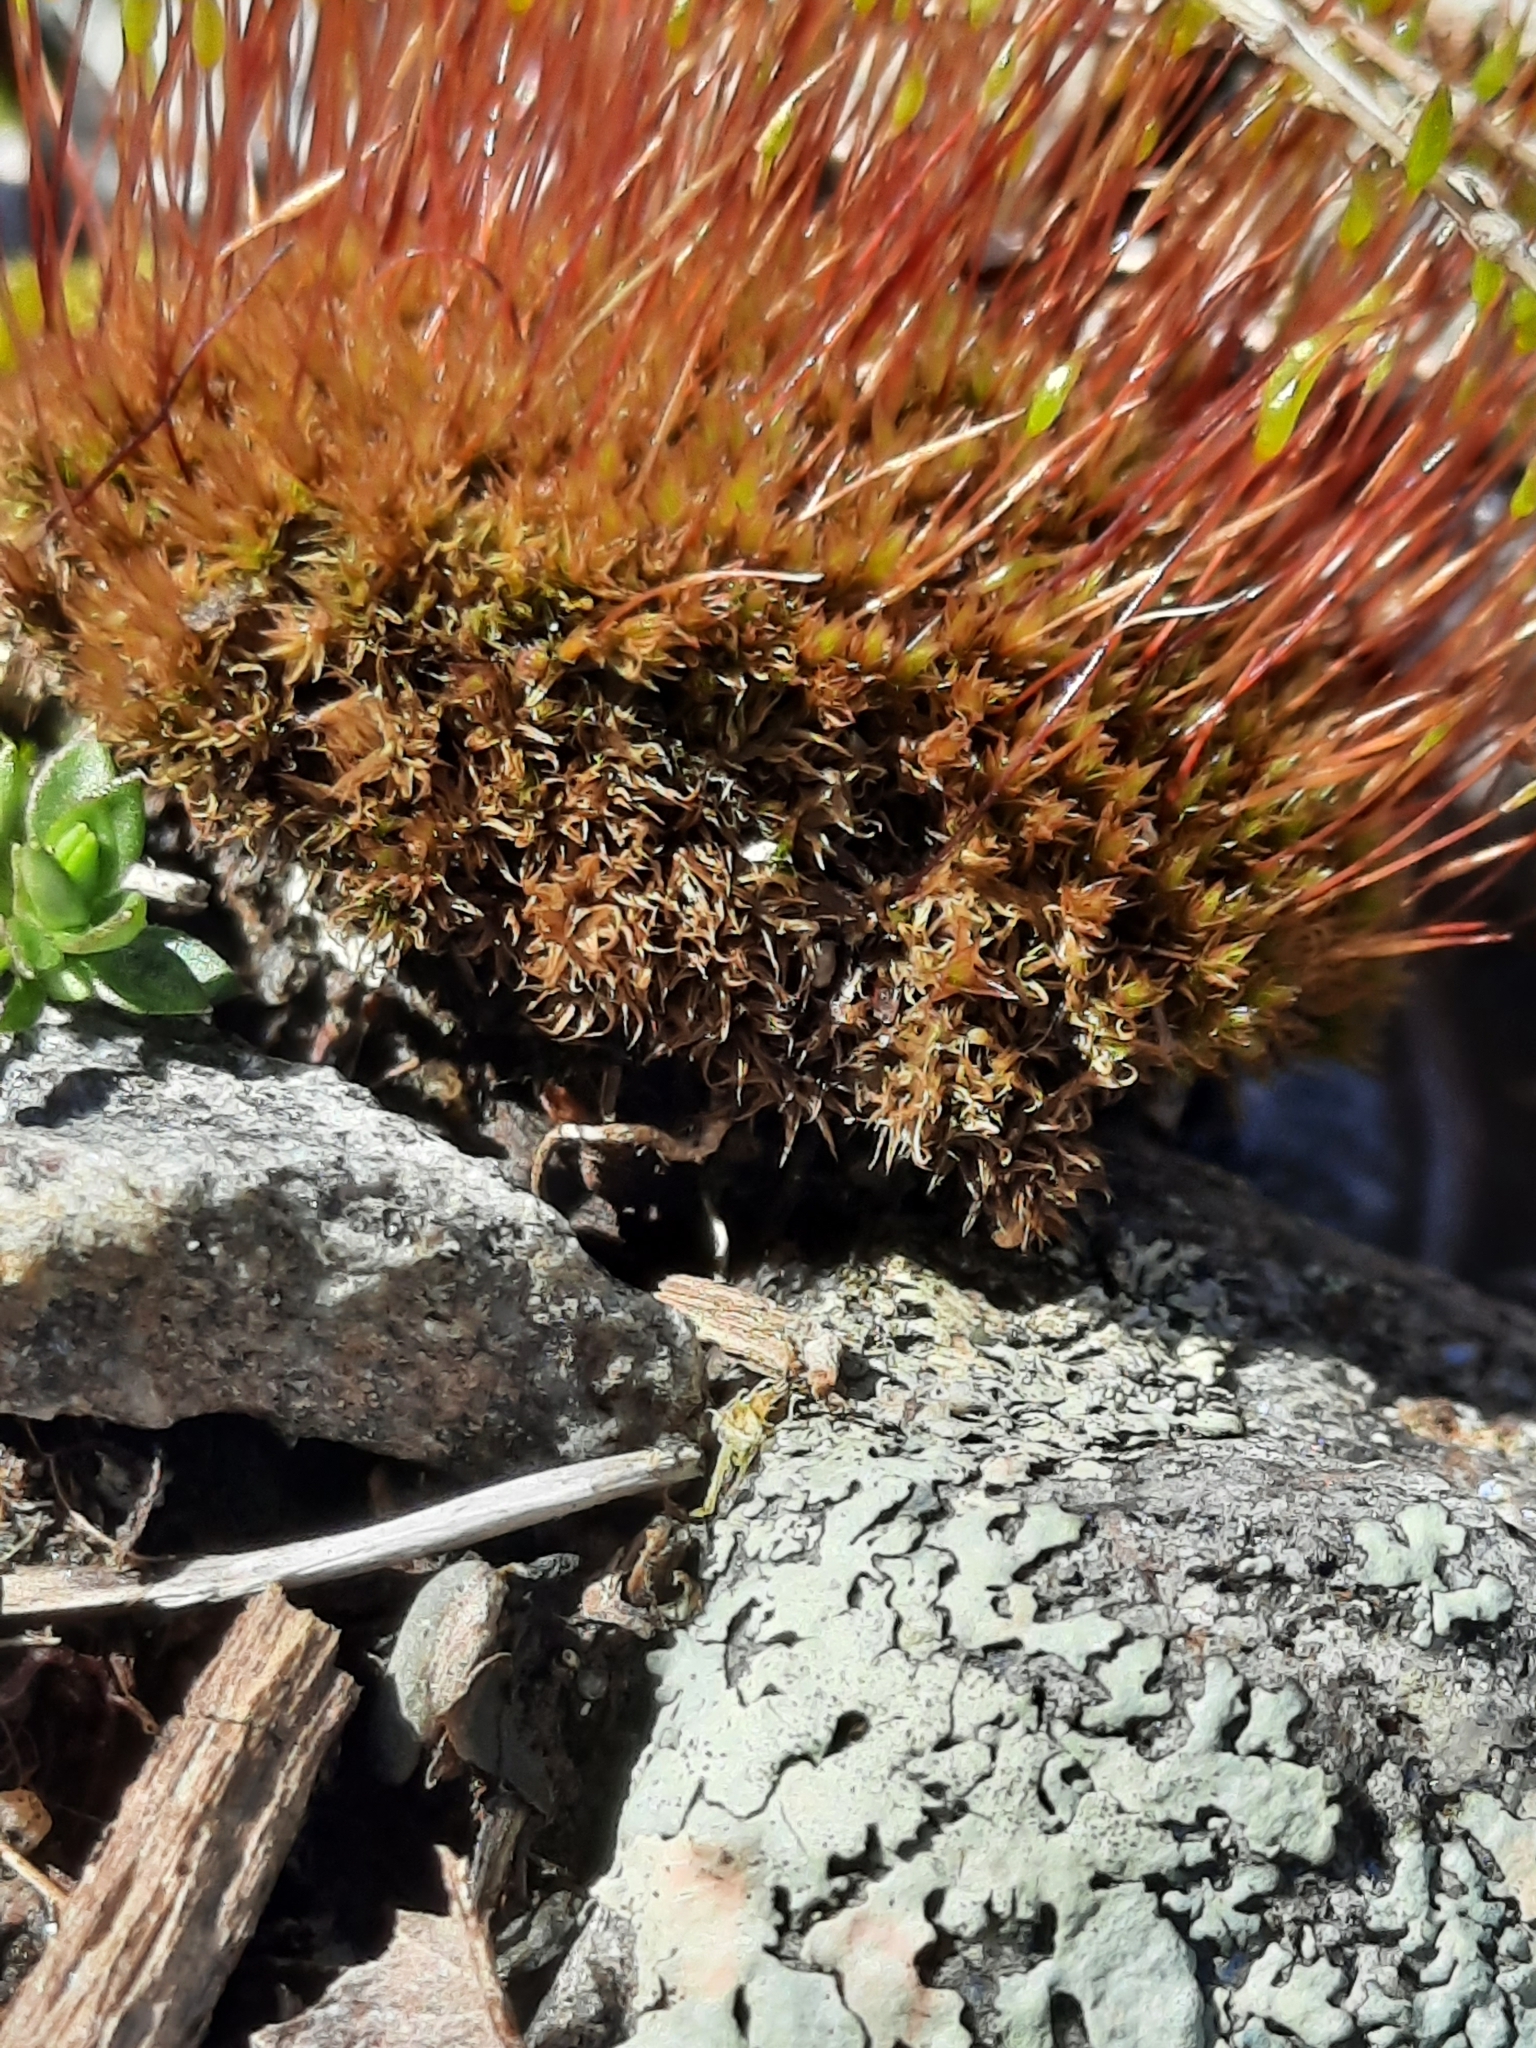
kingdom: Plantae
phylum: Bryophyta
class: Bryopsida
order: Dicranales
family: Ditrichaceae
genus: Ceratodon
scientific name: Ceratodon purpureus
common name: Redshank
